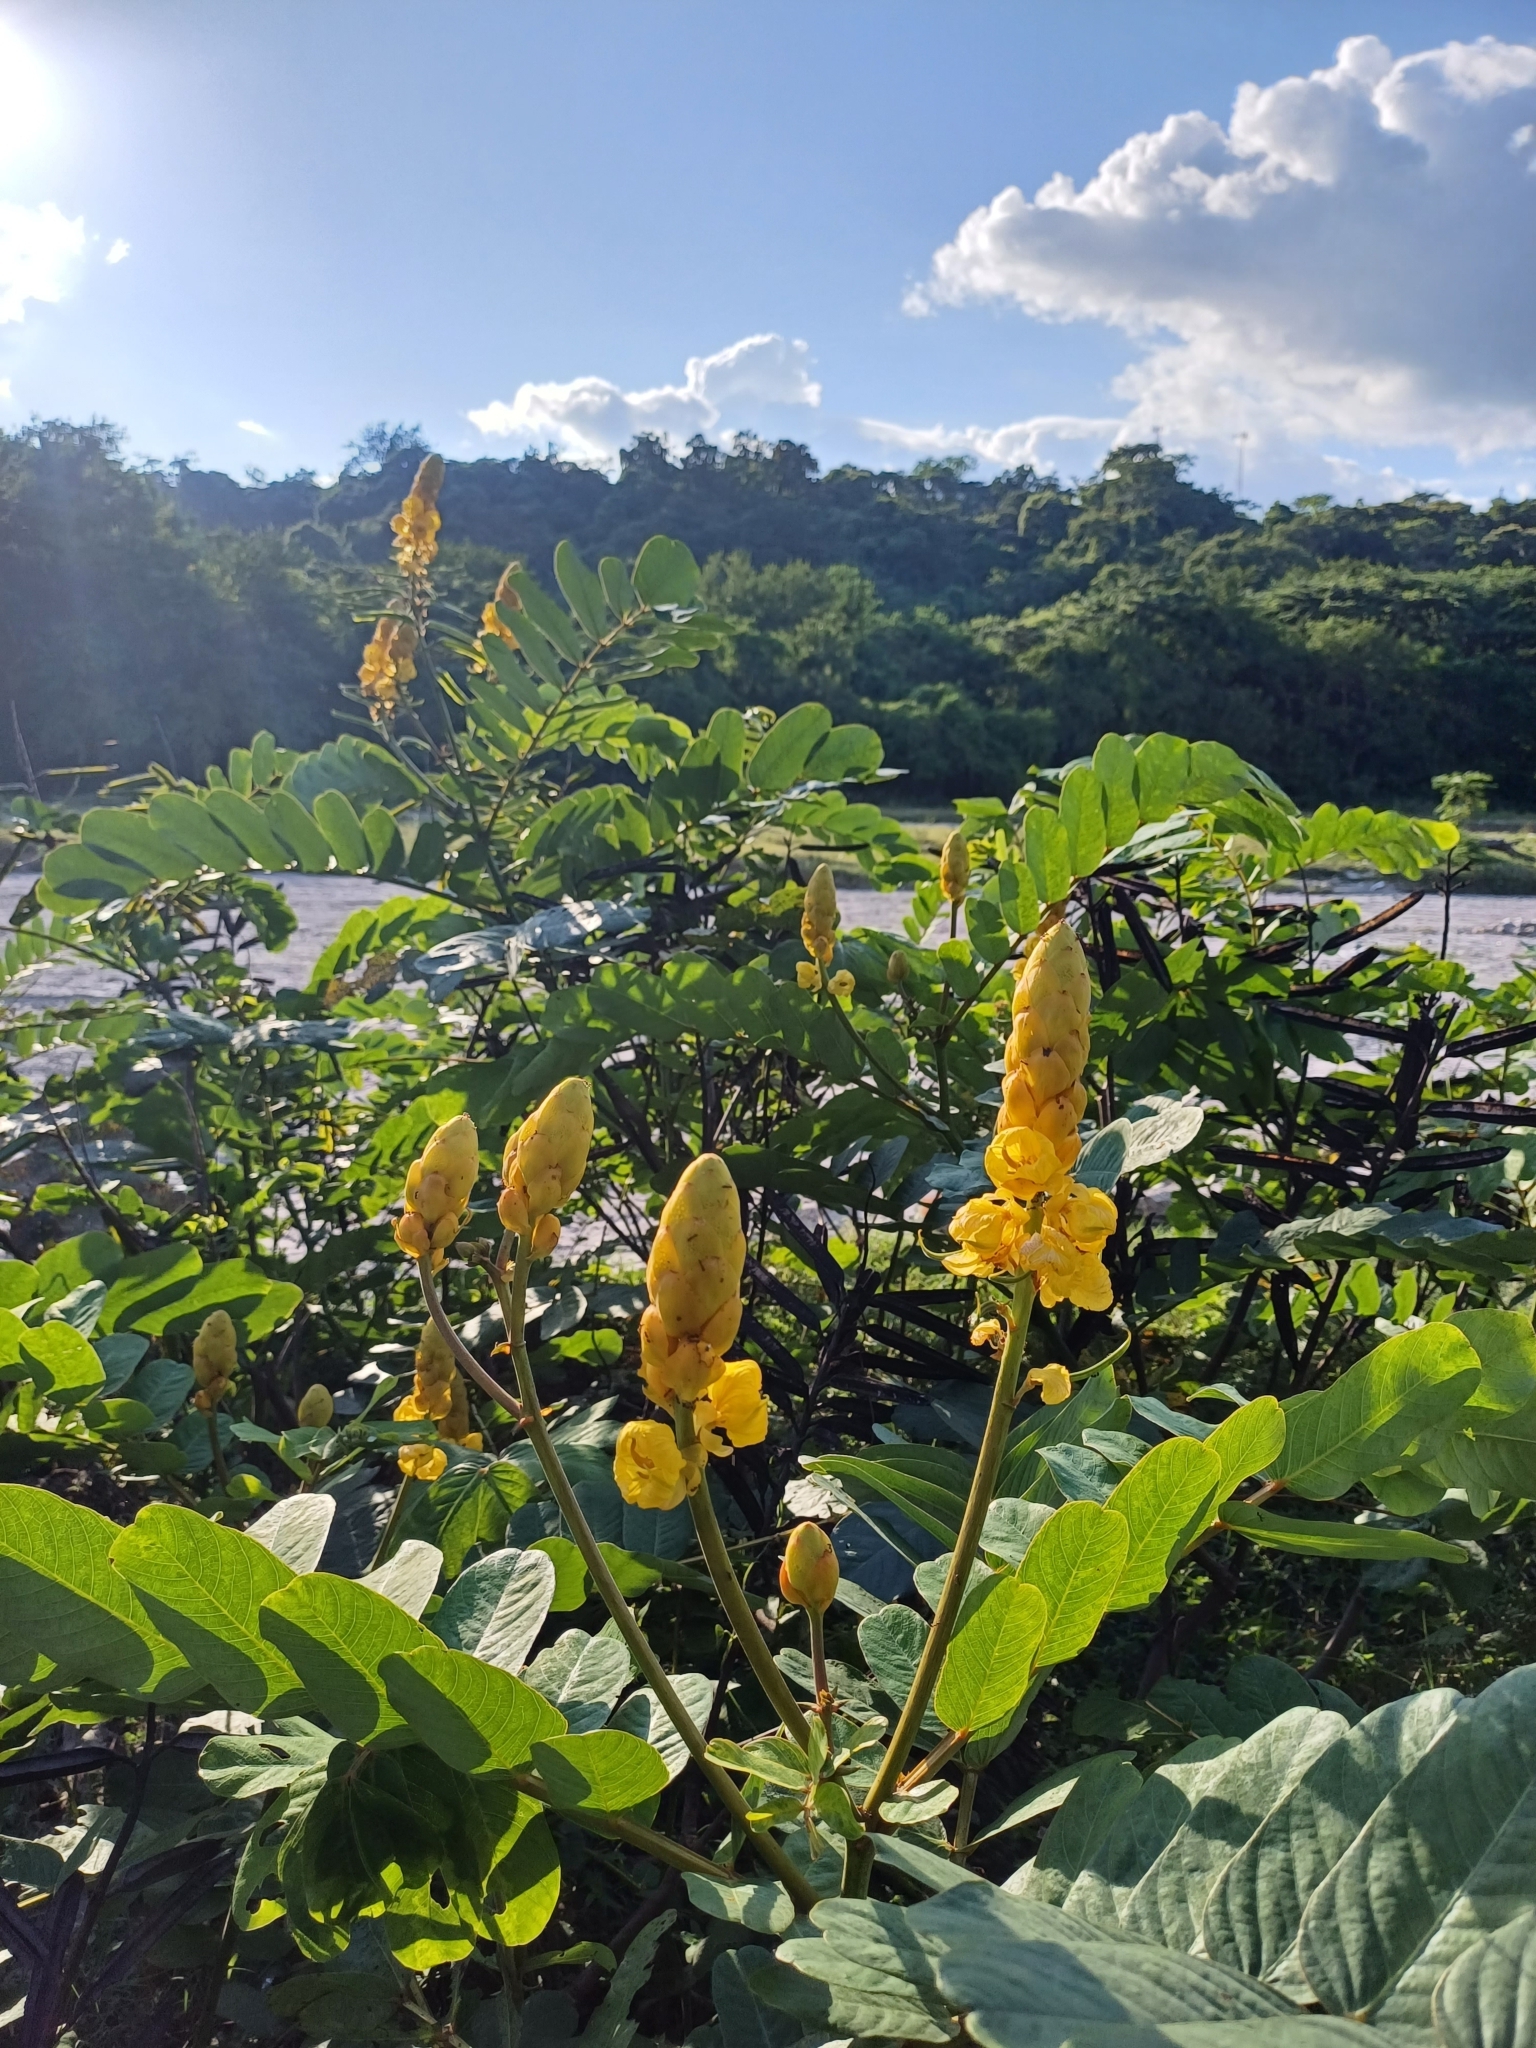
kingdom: Plantae
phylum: Tracheophyta
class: Magnoliopsida
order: Fabales
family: Fabaceae
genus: Senna
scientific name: Senna alata
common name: Emperor's candlesticks
